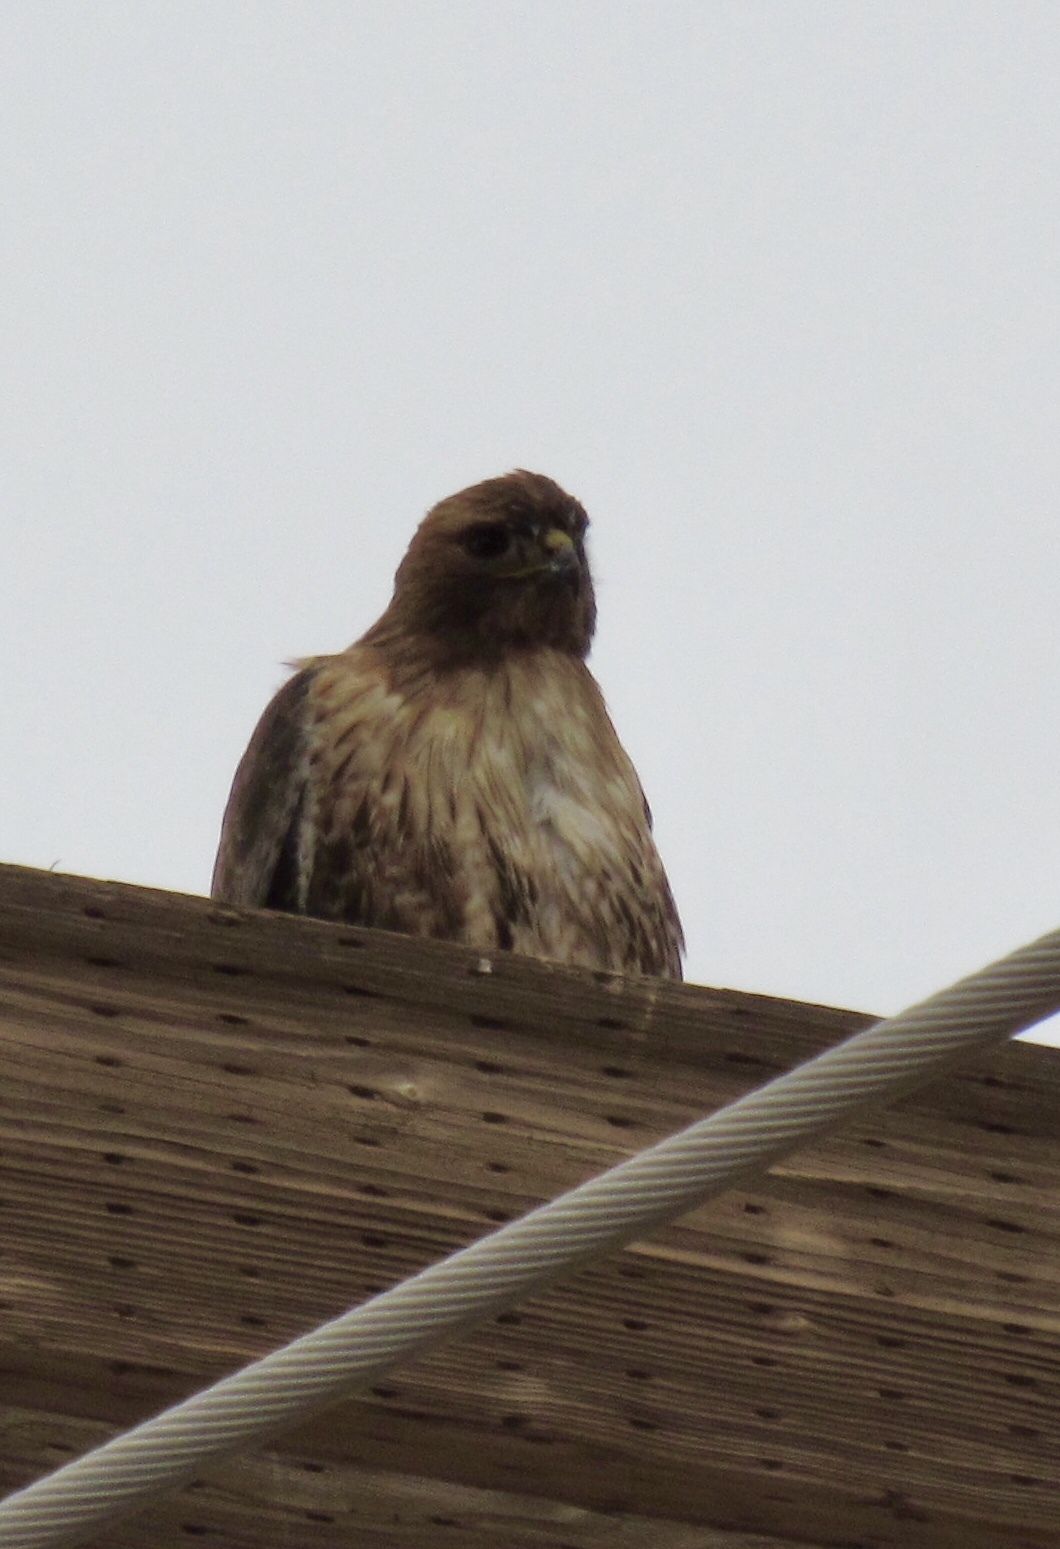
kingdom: Animalia
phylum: Chordata
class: Aves
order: Accipitriformes
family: Accipitridae
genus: Buteo
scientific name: Buteo jamaicensis
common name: Red-tailed hawk
